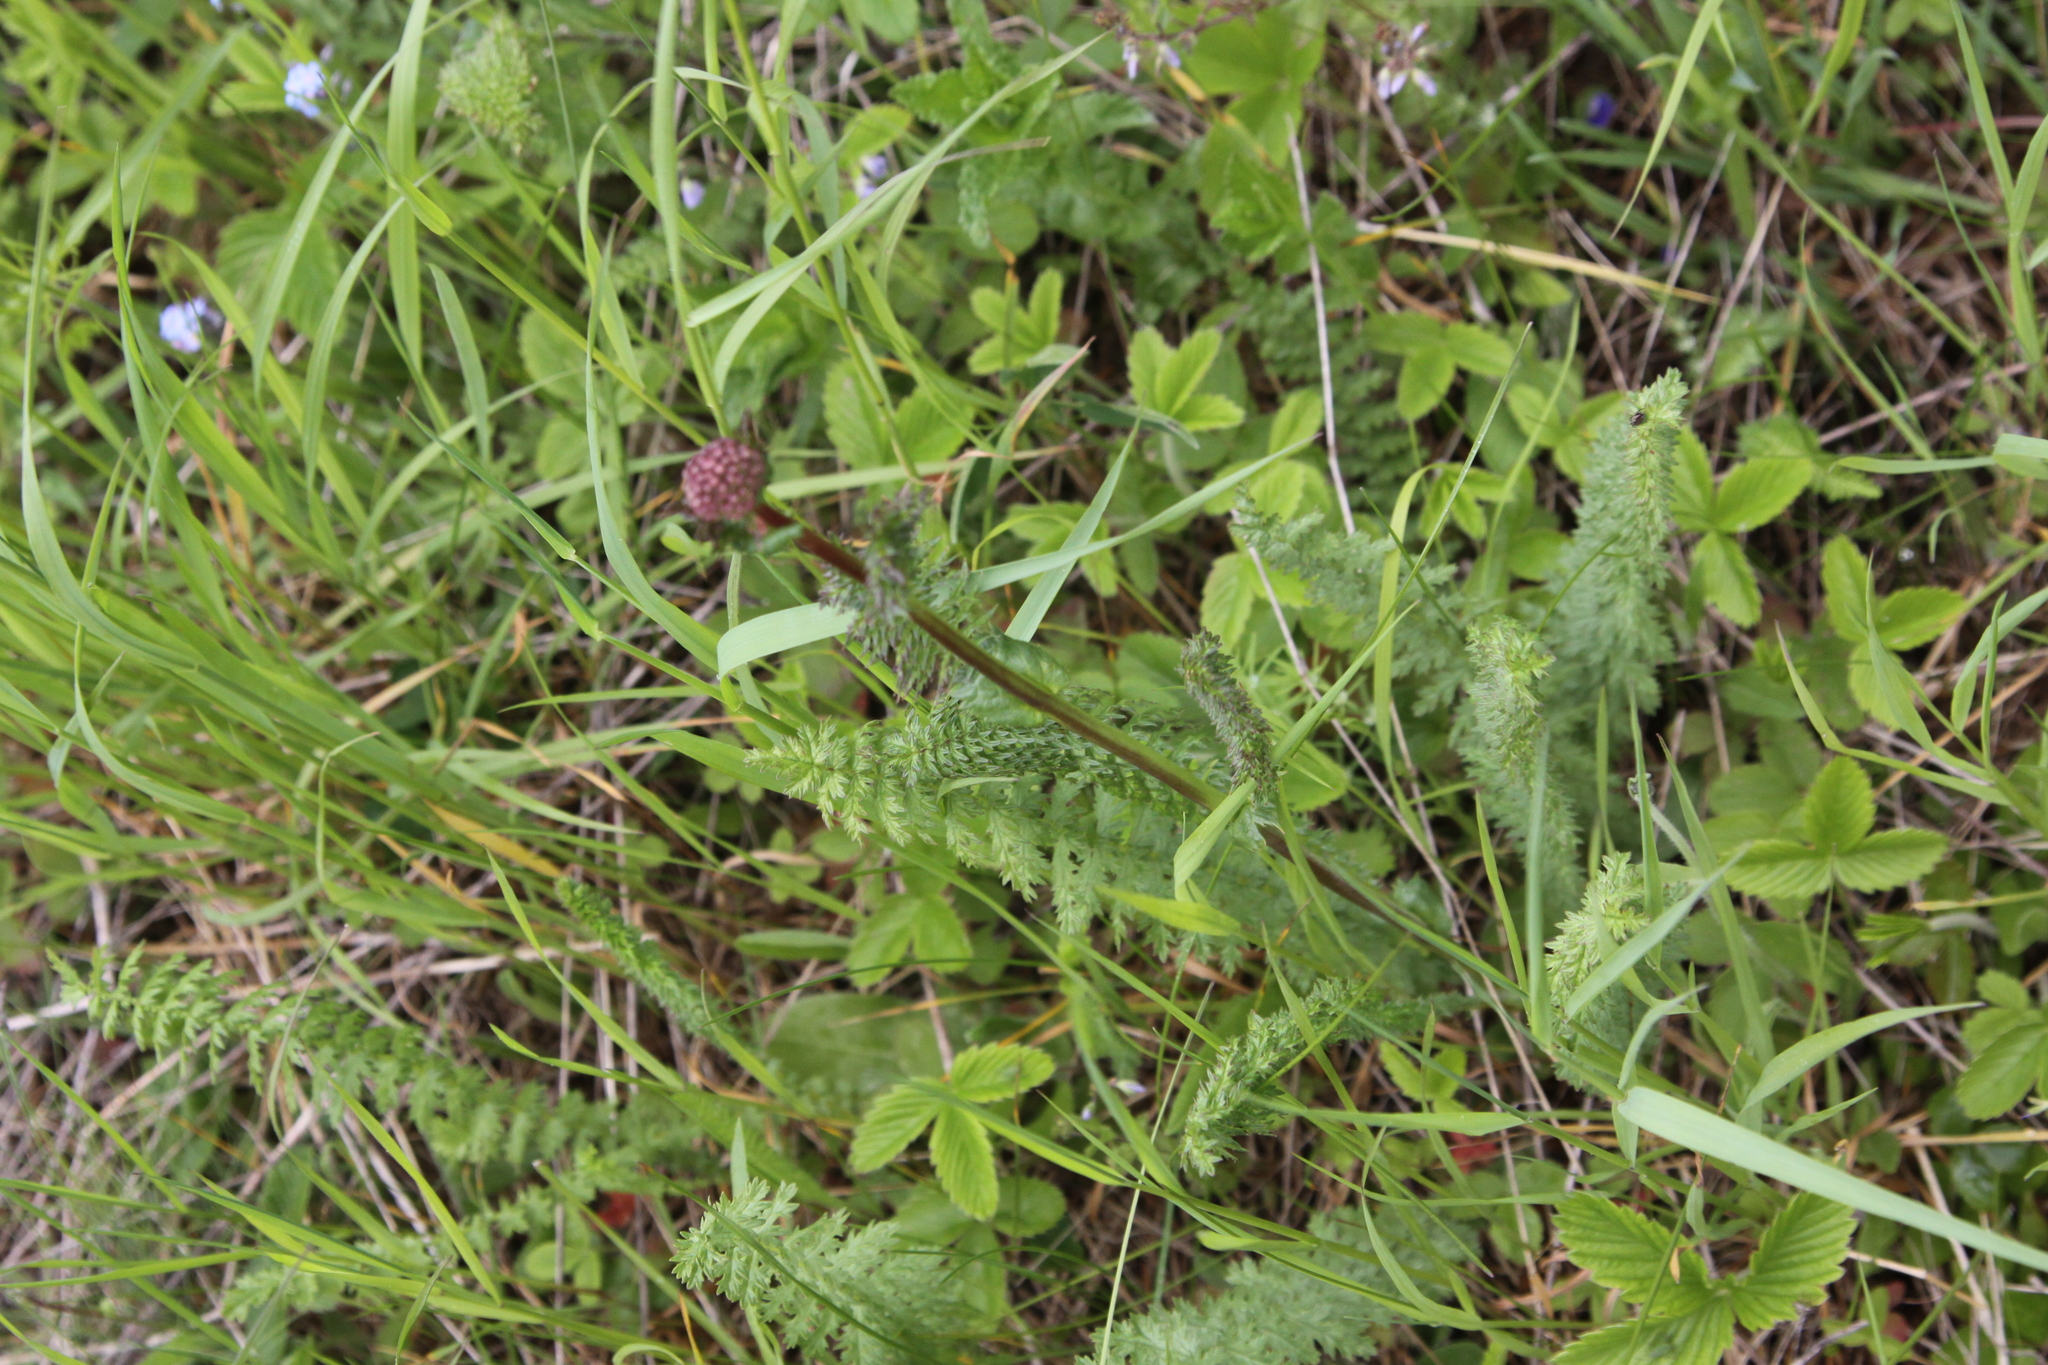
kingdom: Plantae
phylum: Tracheophyta
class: Magnoliopsida
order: Rosales
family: Rosaceae
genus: Filipendula
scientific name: Filipendula vulgaris
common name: Dropwort
